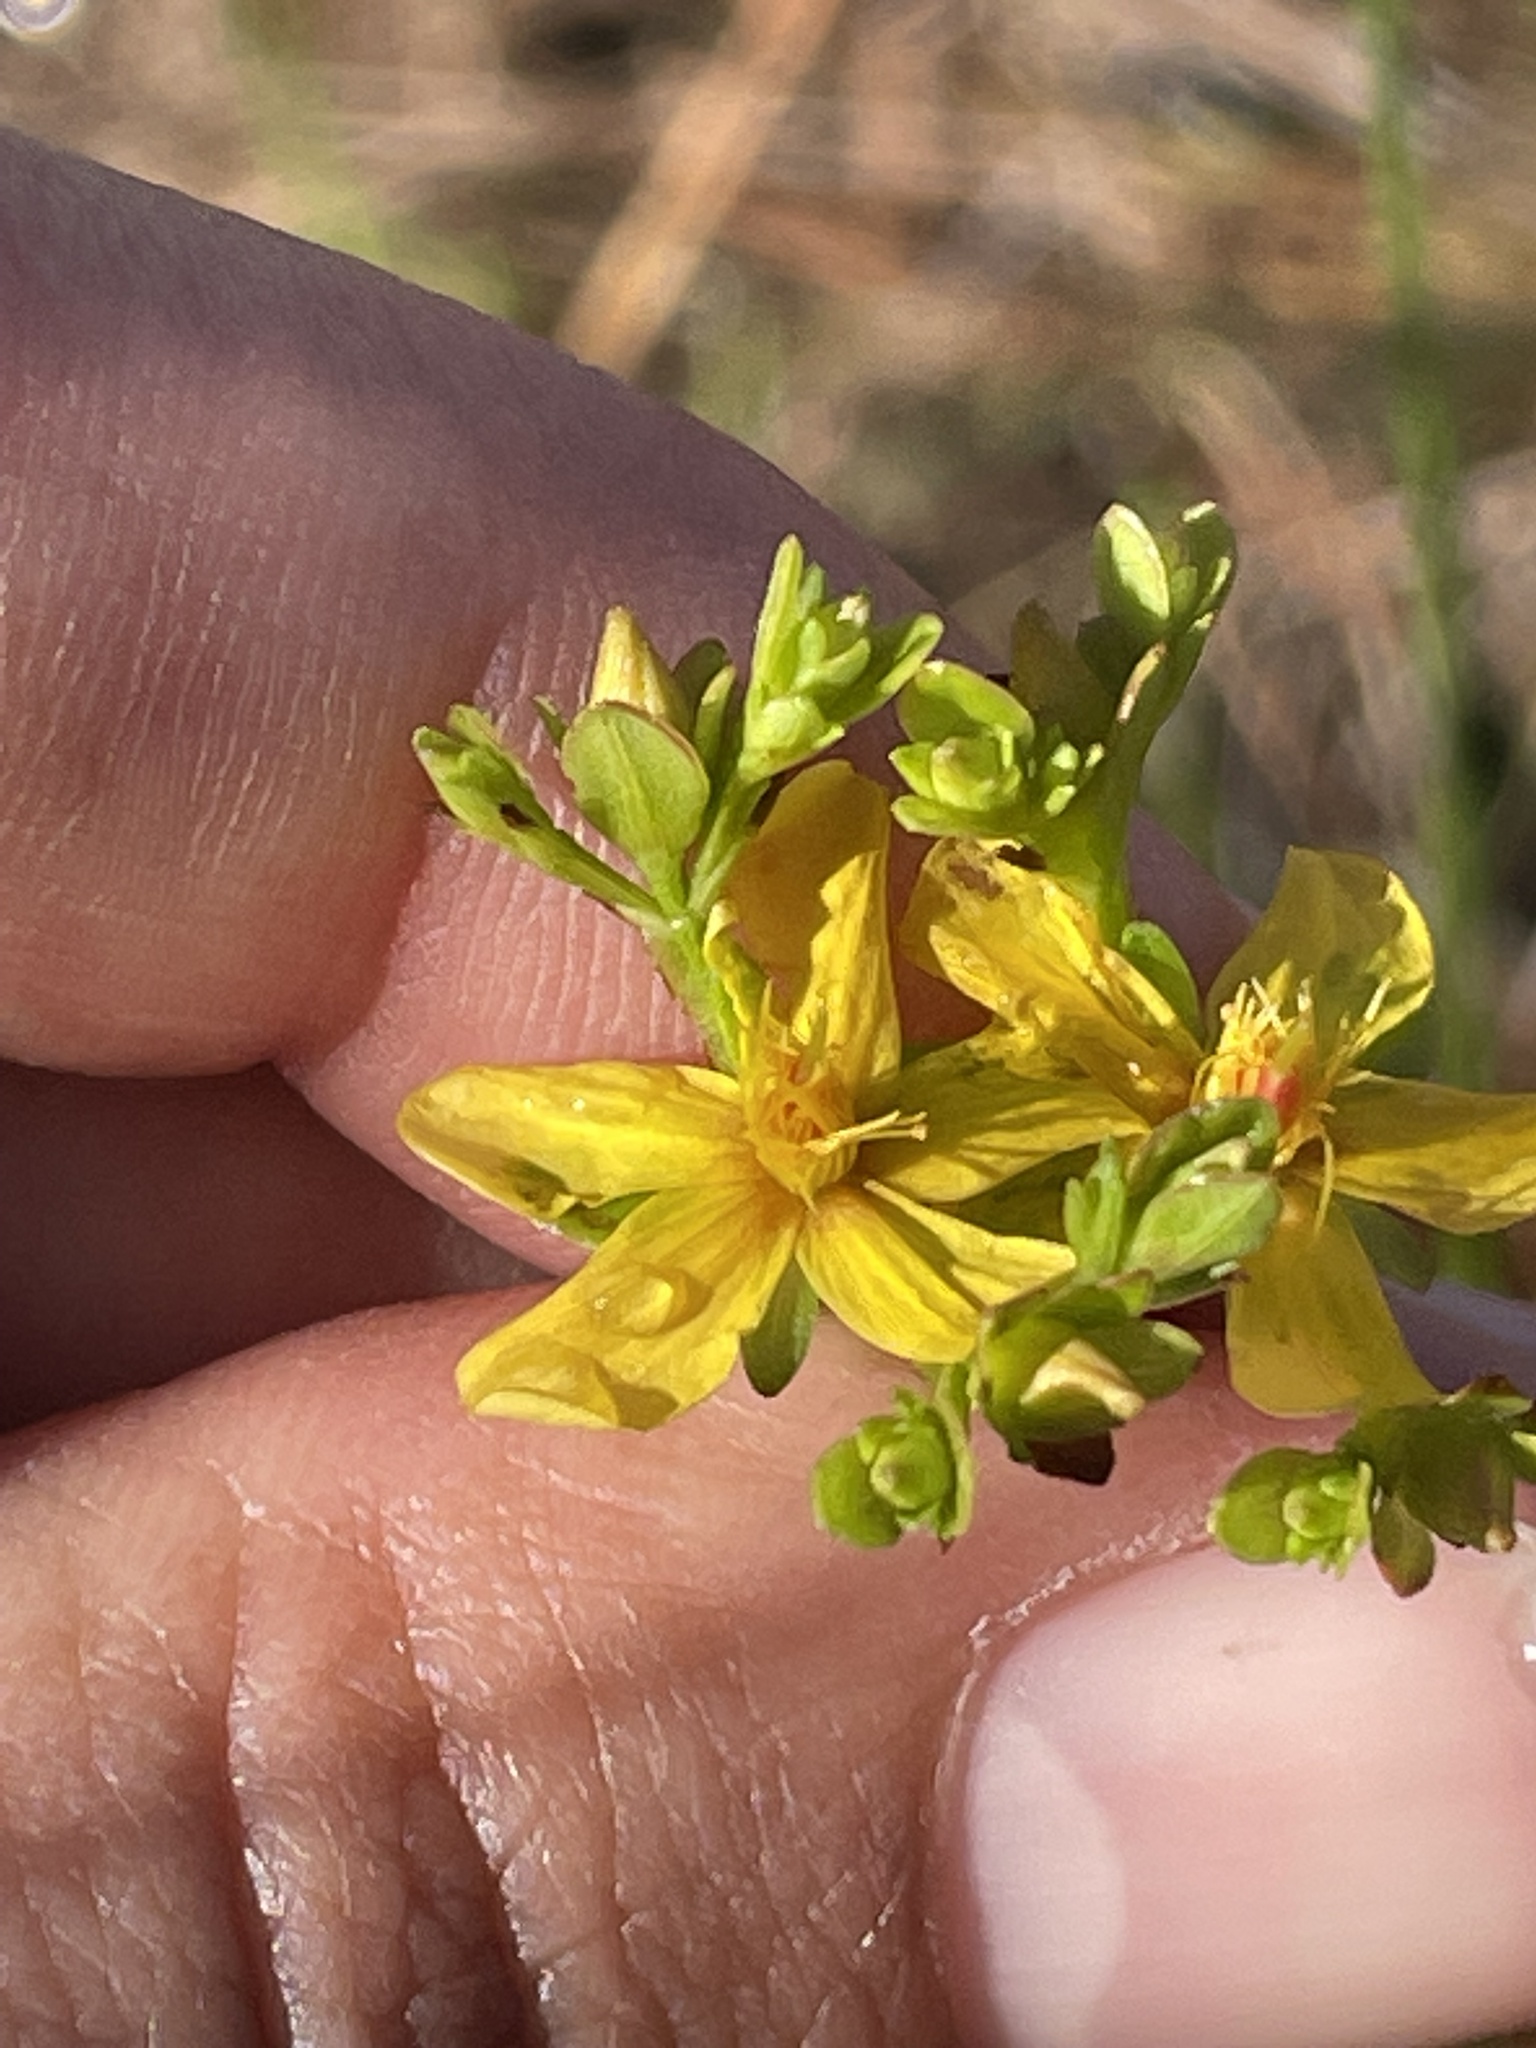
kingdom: Plantae
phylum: Tracheophyta
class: Magnoliopsida
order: Malpighiales
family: Hypericaceae
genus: Hypericum
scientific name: Hypericum cistifolium
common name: Round-pod st. john's-wort
